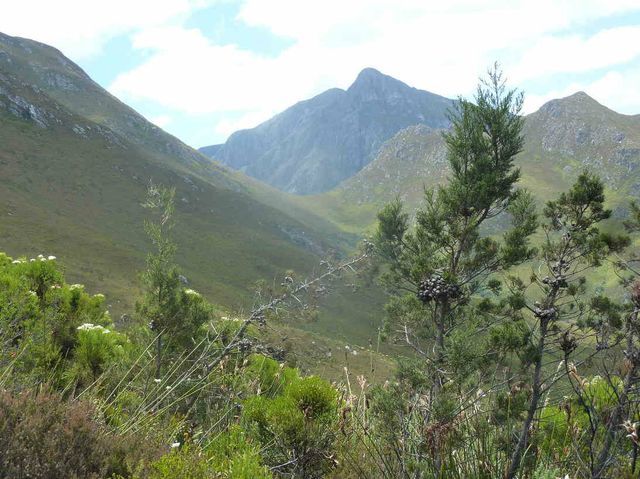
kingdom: Plantae
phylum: Tracheophyta
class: Pinopsida
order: Pinales
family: Cupressaceae
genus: Widdringtonia
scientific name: Widdringtonia nodiflora
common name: Cape cypress
